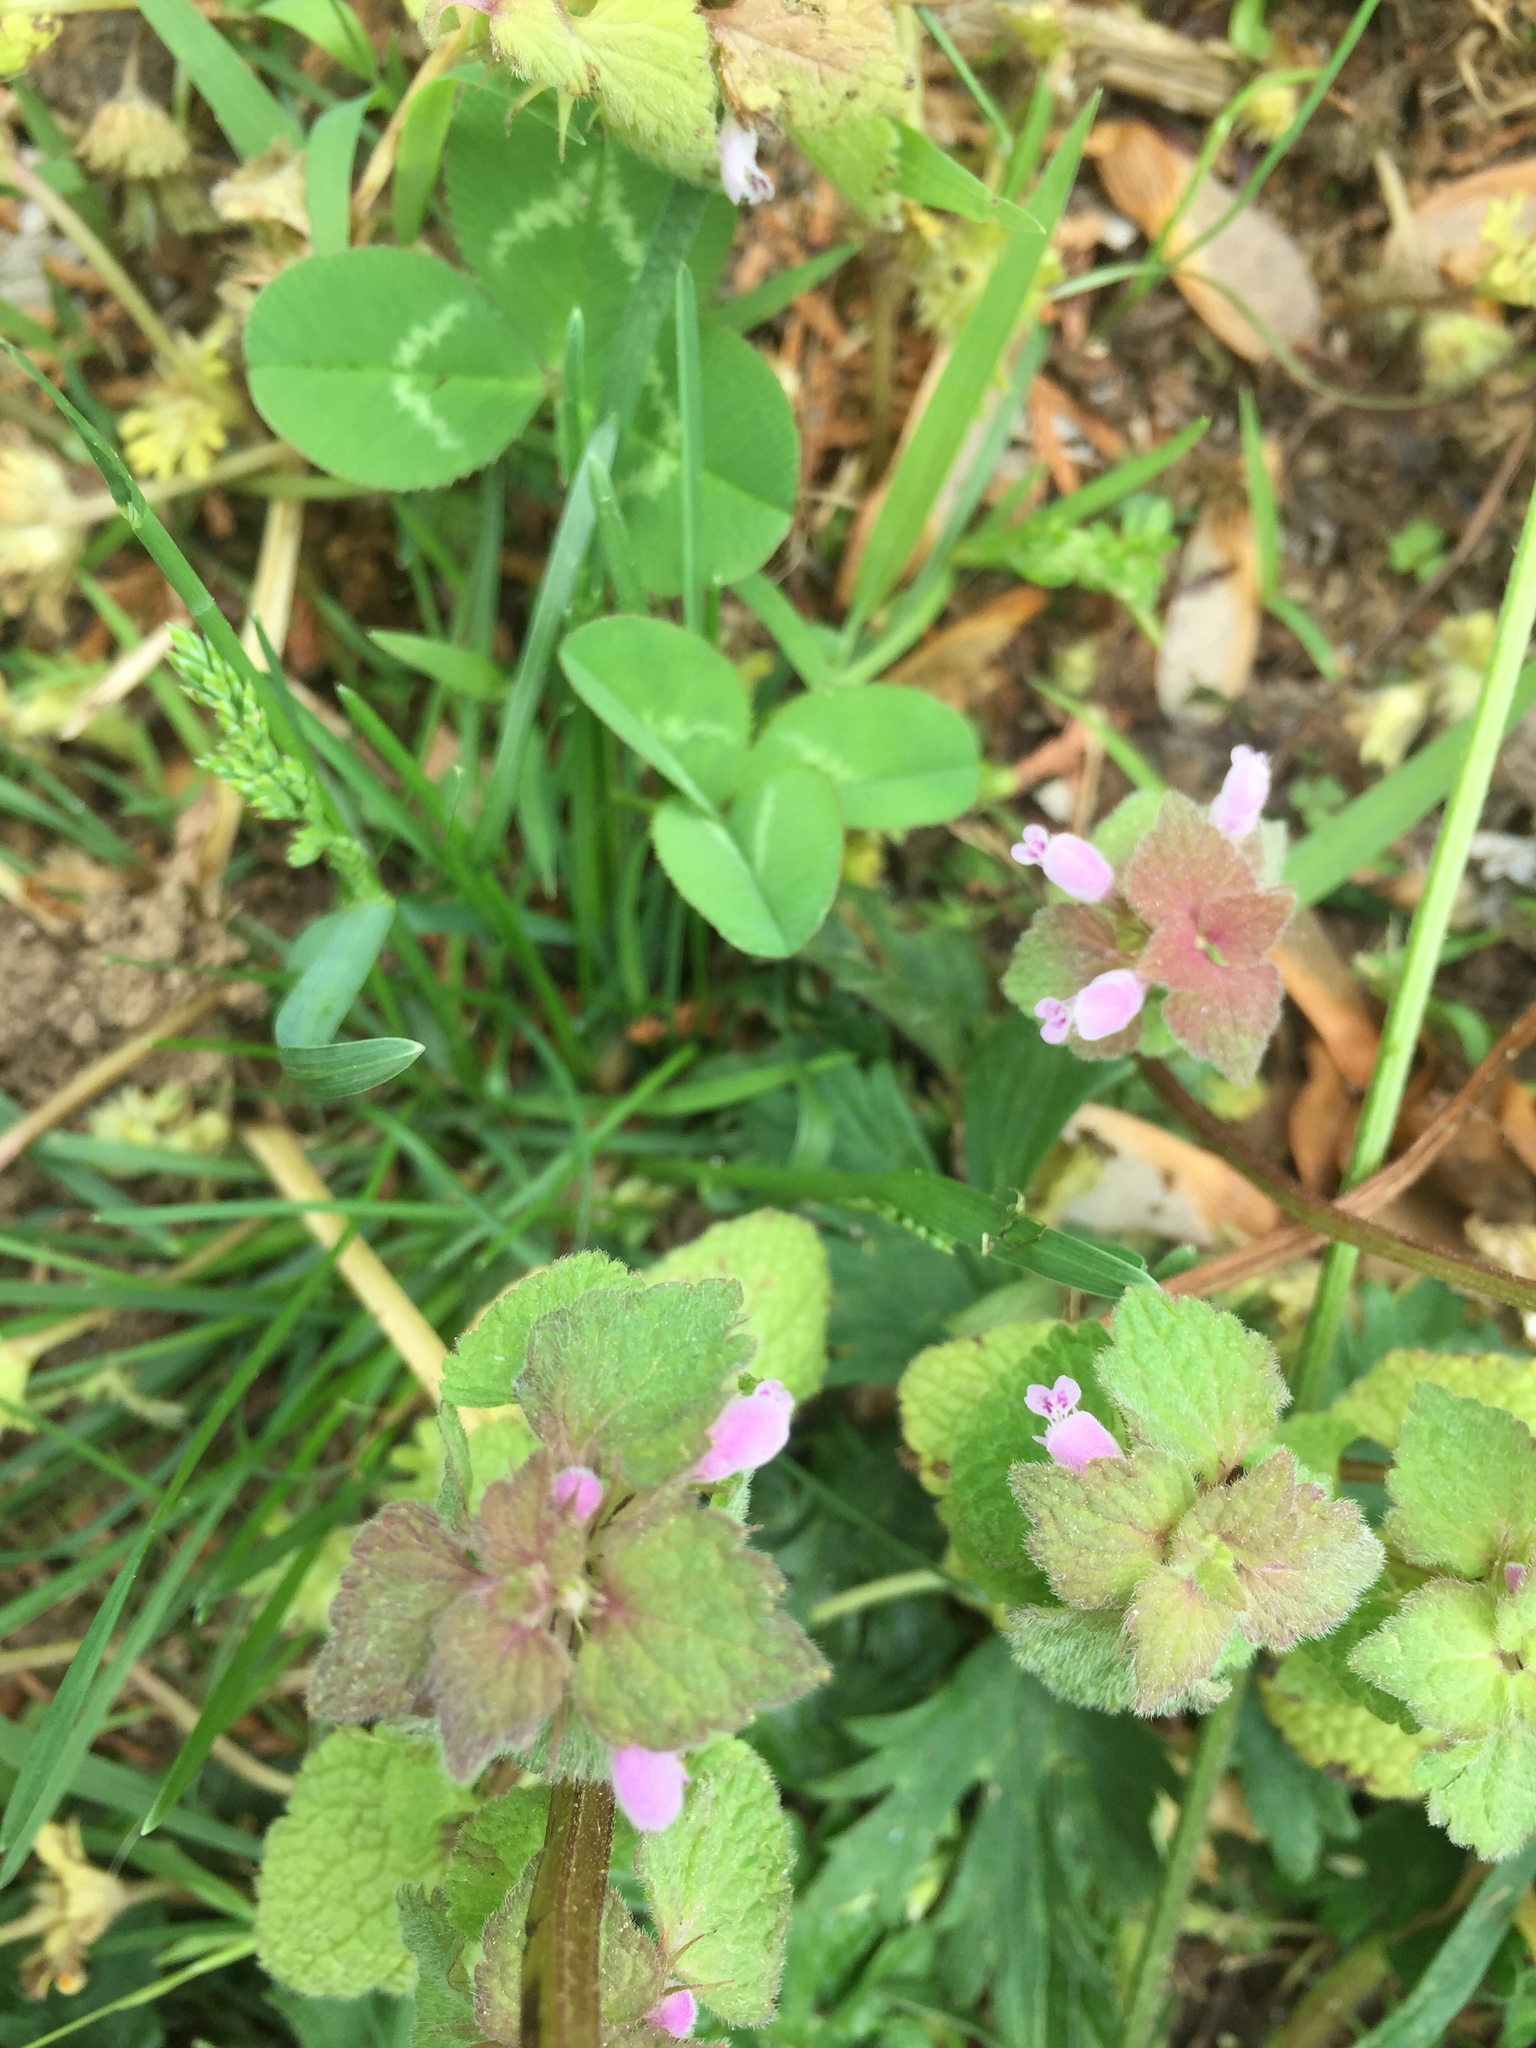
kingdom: Plantae
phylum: Tracheophyta
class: Magnoliopsida
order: Lamiales
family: Lamiaceae
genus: Lamium
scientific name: Lamium purpureum
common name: Red dead-nettle
